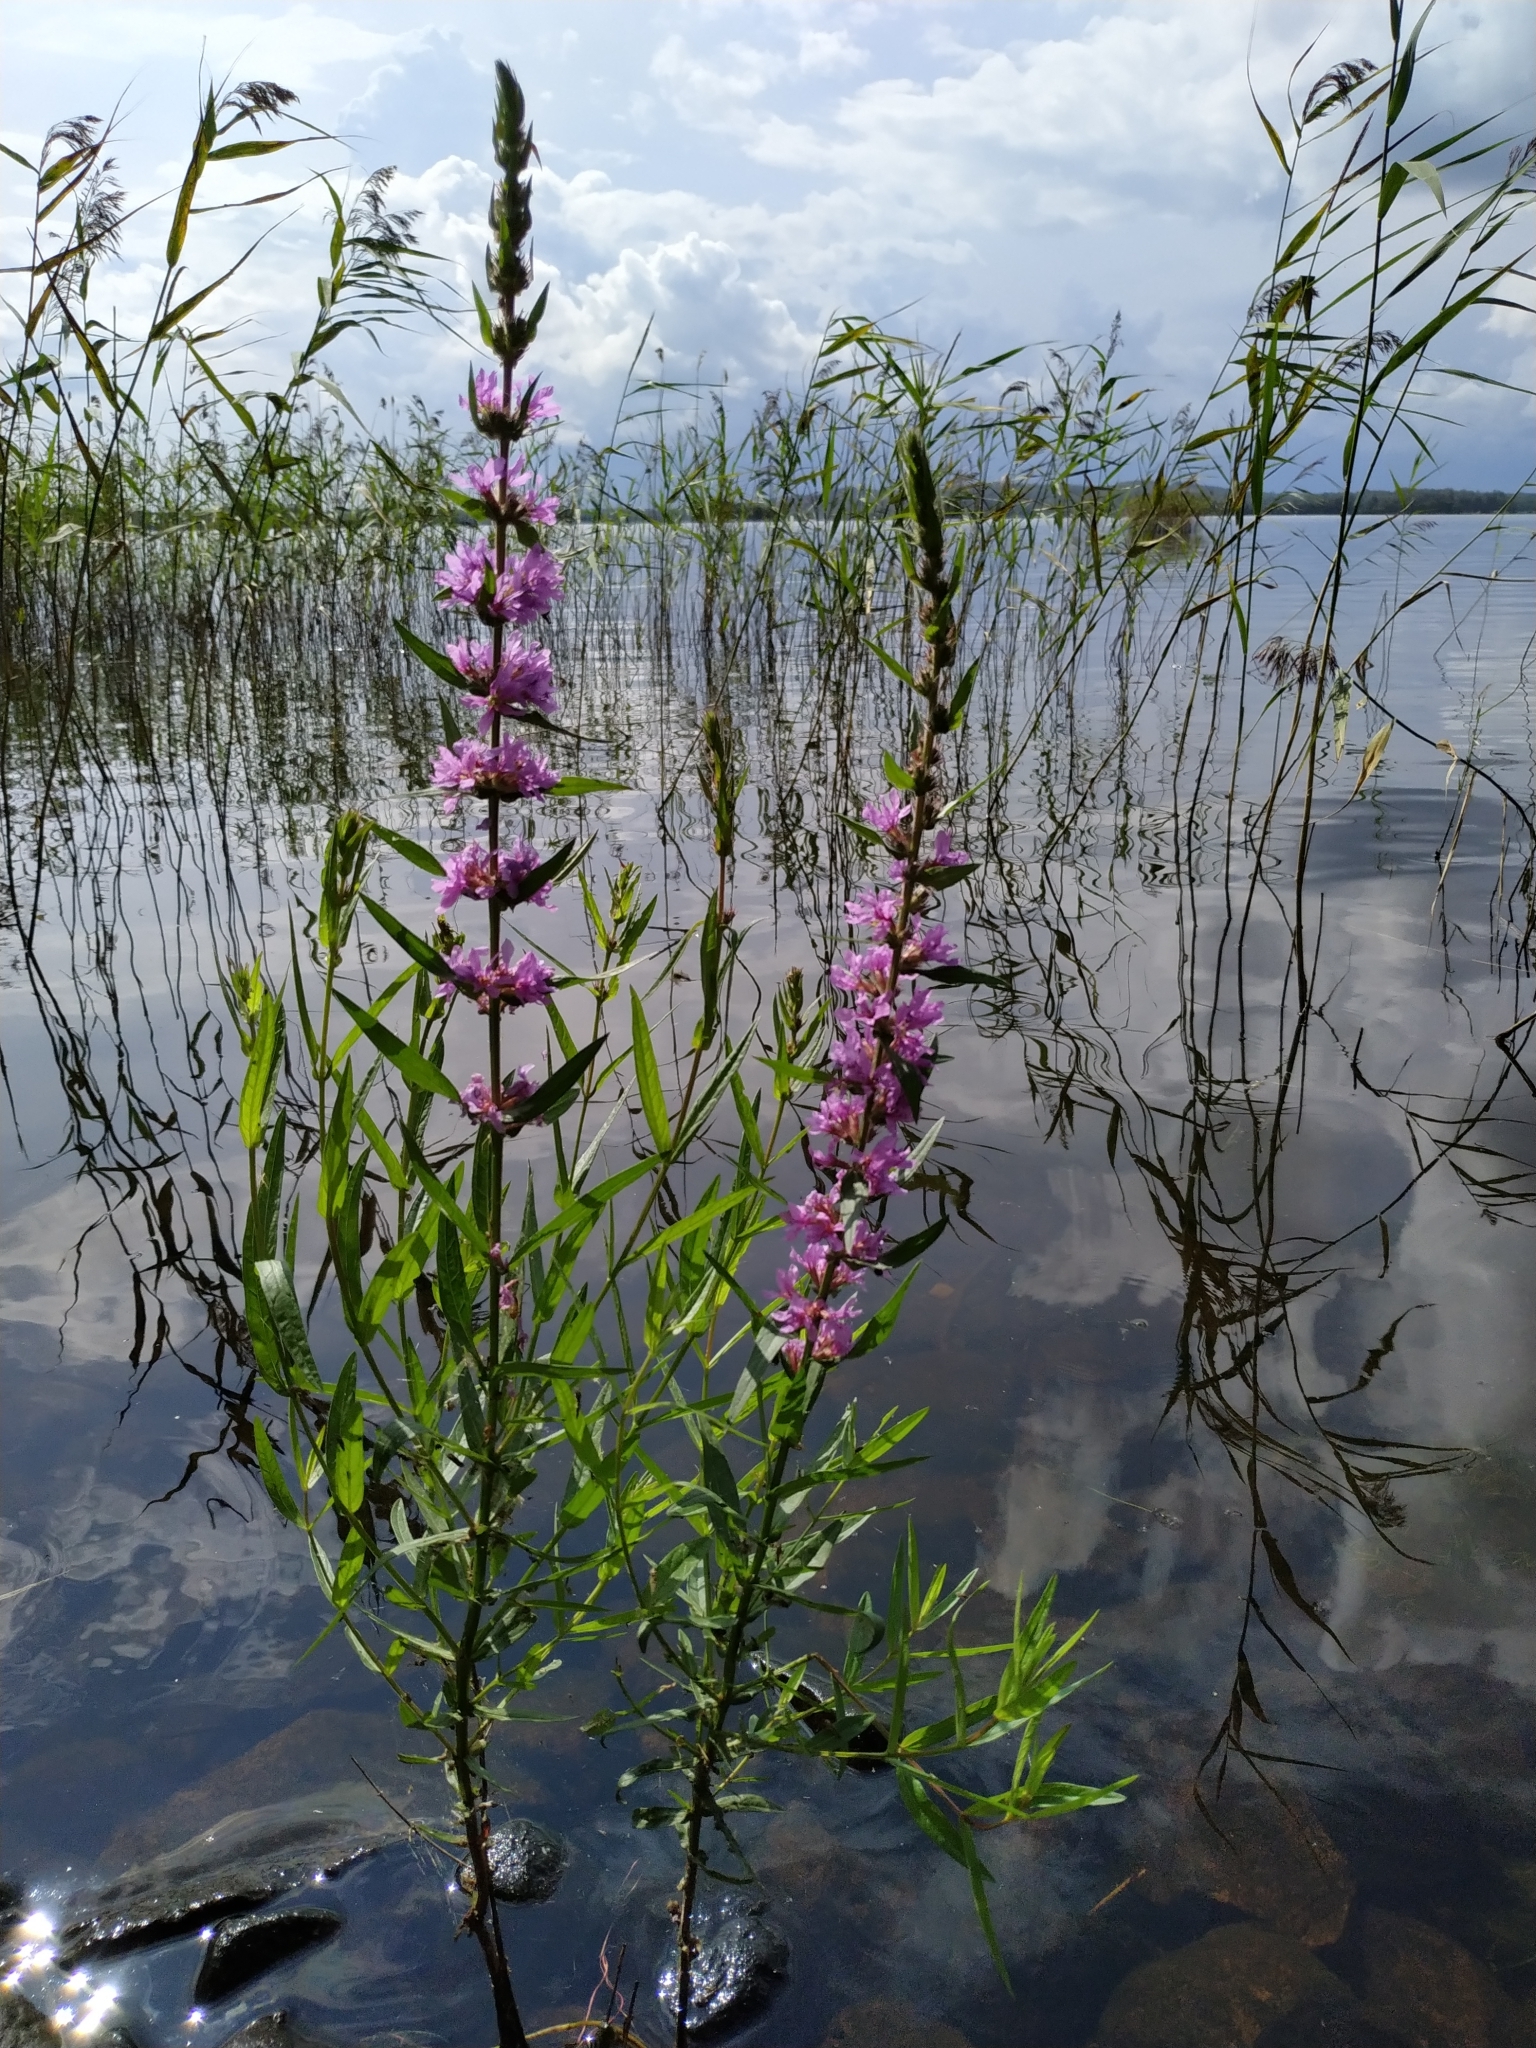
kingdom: Plantae
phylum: Tracheophyta
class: Magnoliopsida
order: Myrtales
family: Lythraceae
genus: Lythrum
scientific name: Lythrum salicaria
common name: Purple loosestrife
